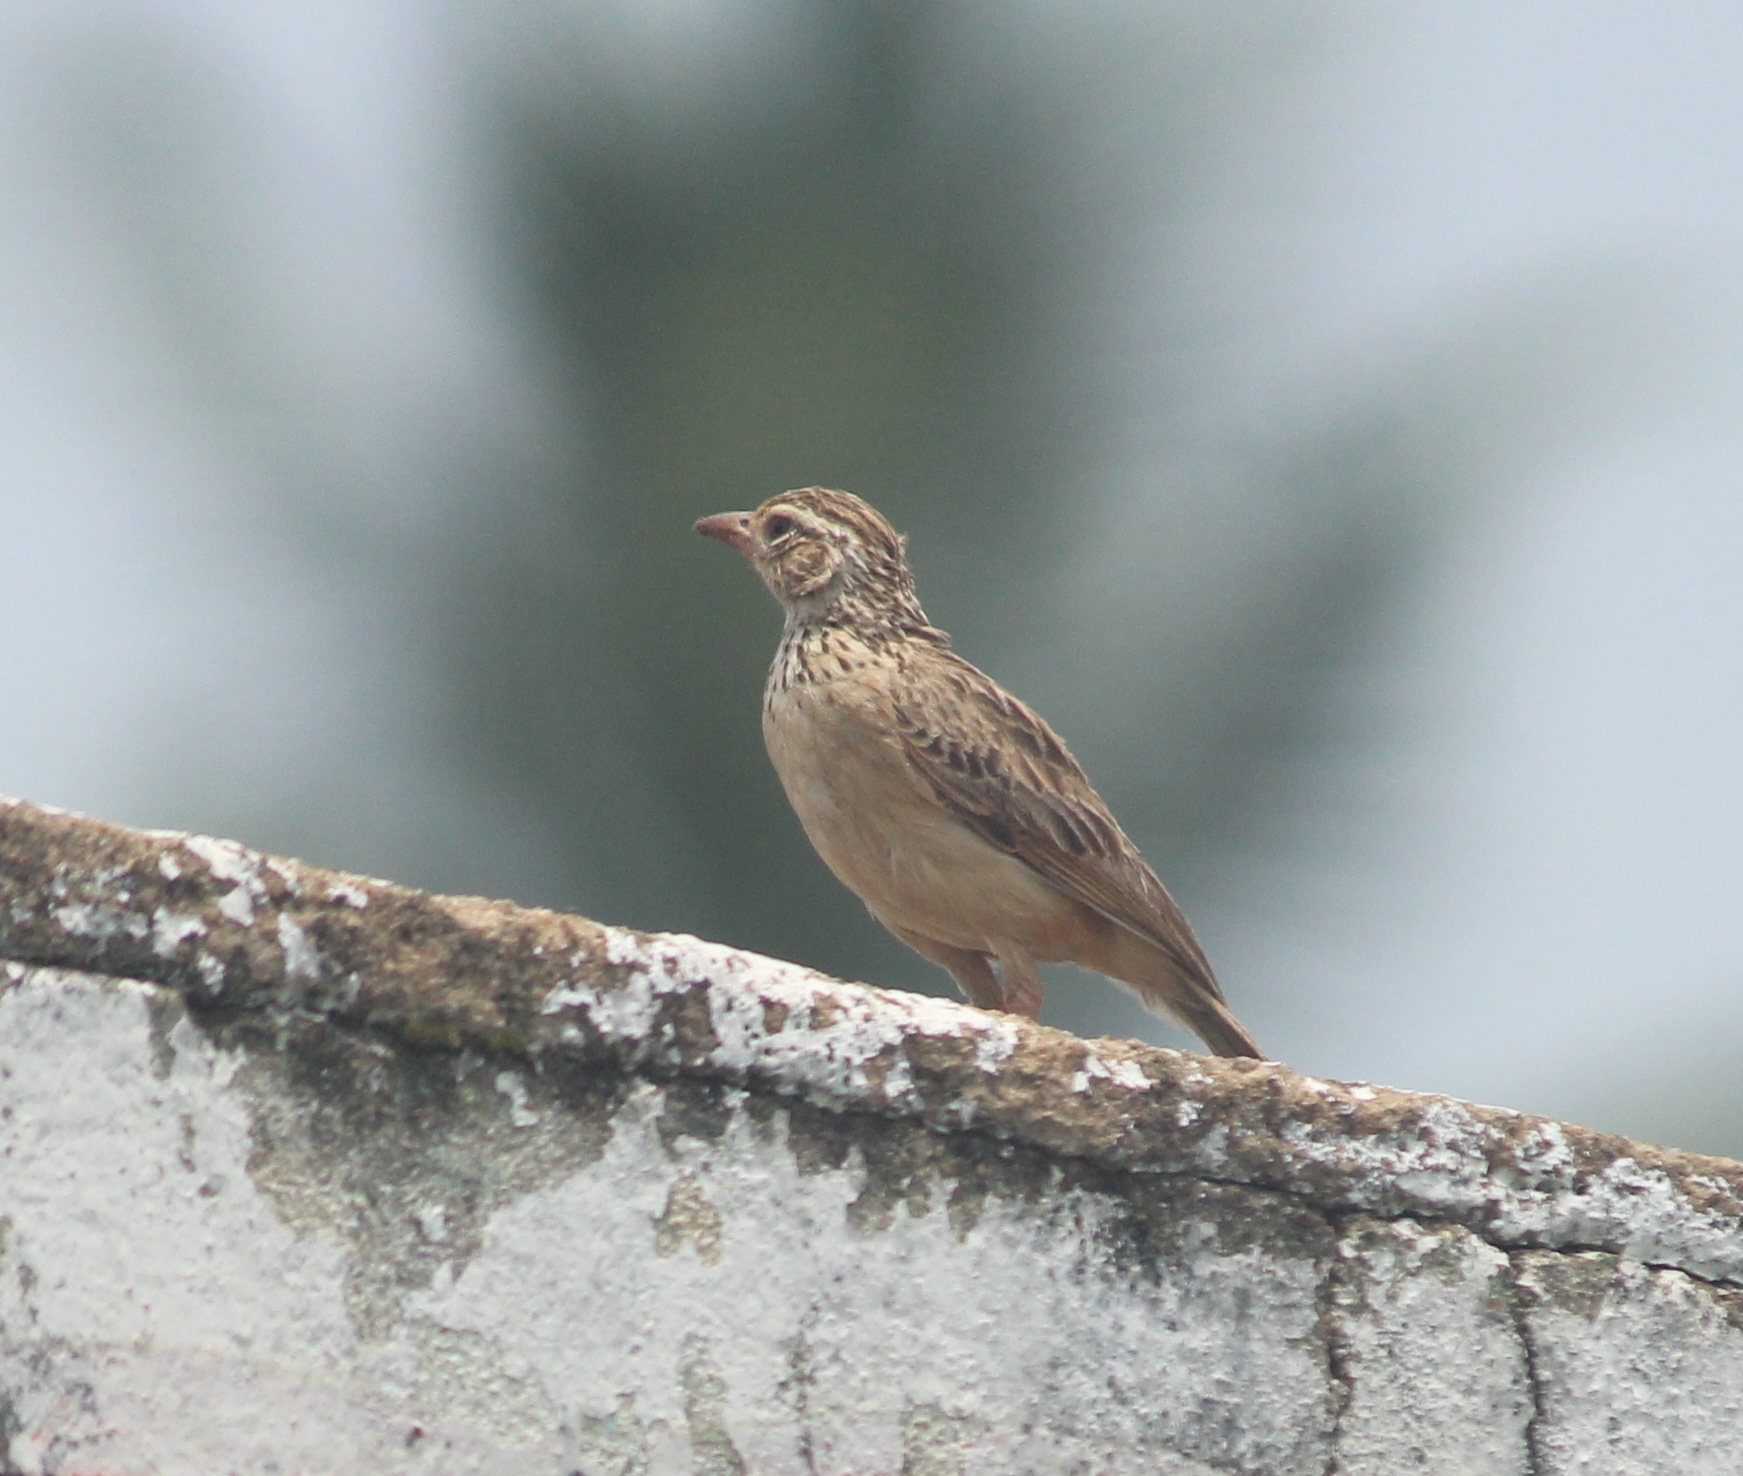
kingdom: Animalia
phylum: Chordata
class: Aves
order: Passeriformes
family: Alaudidae
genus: Mirafra
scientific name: Mirafra affinis
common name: Jerdon's bushlark
